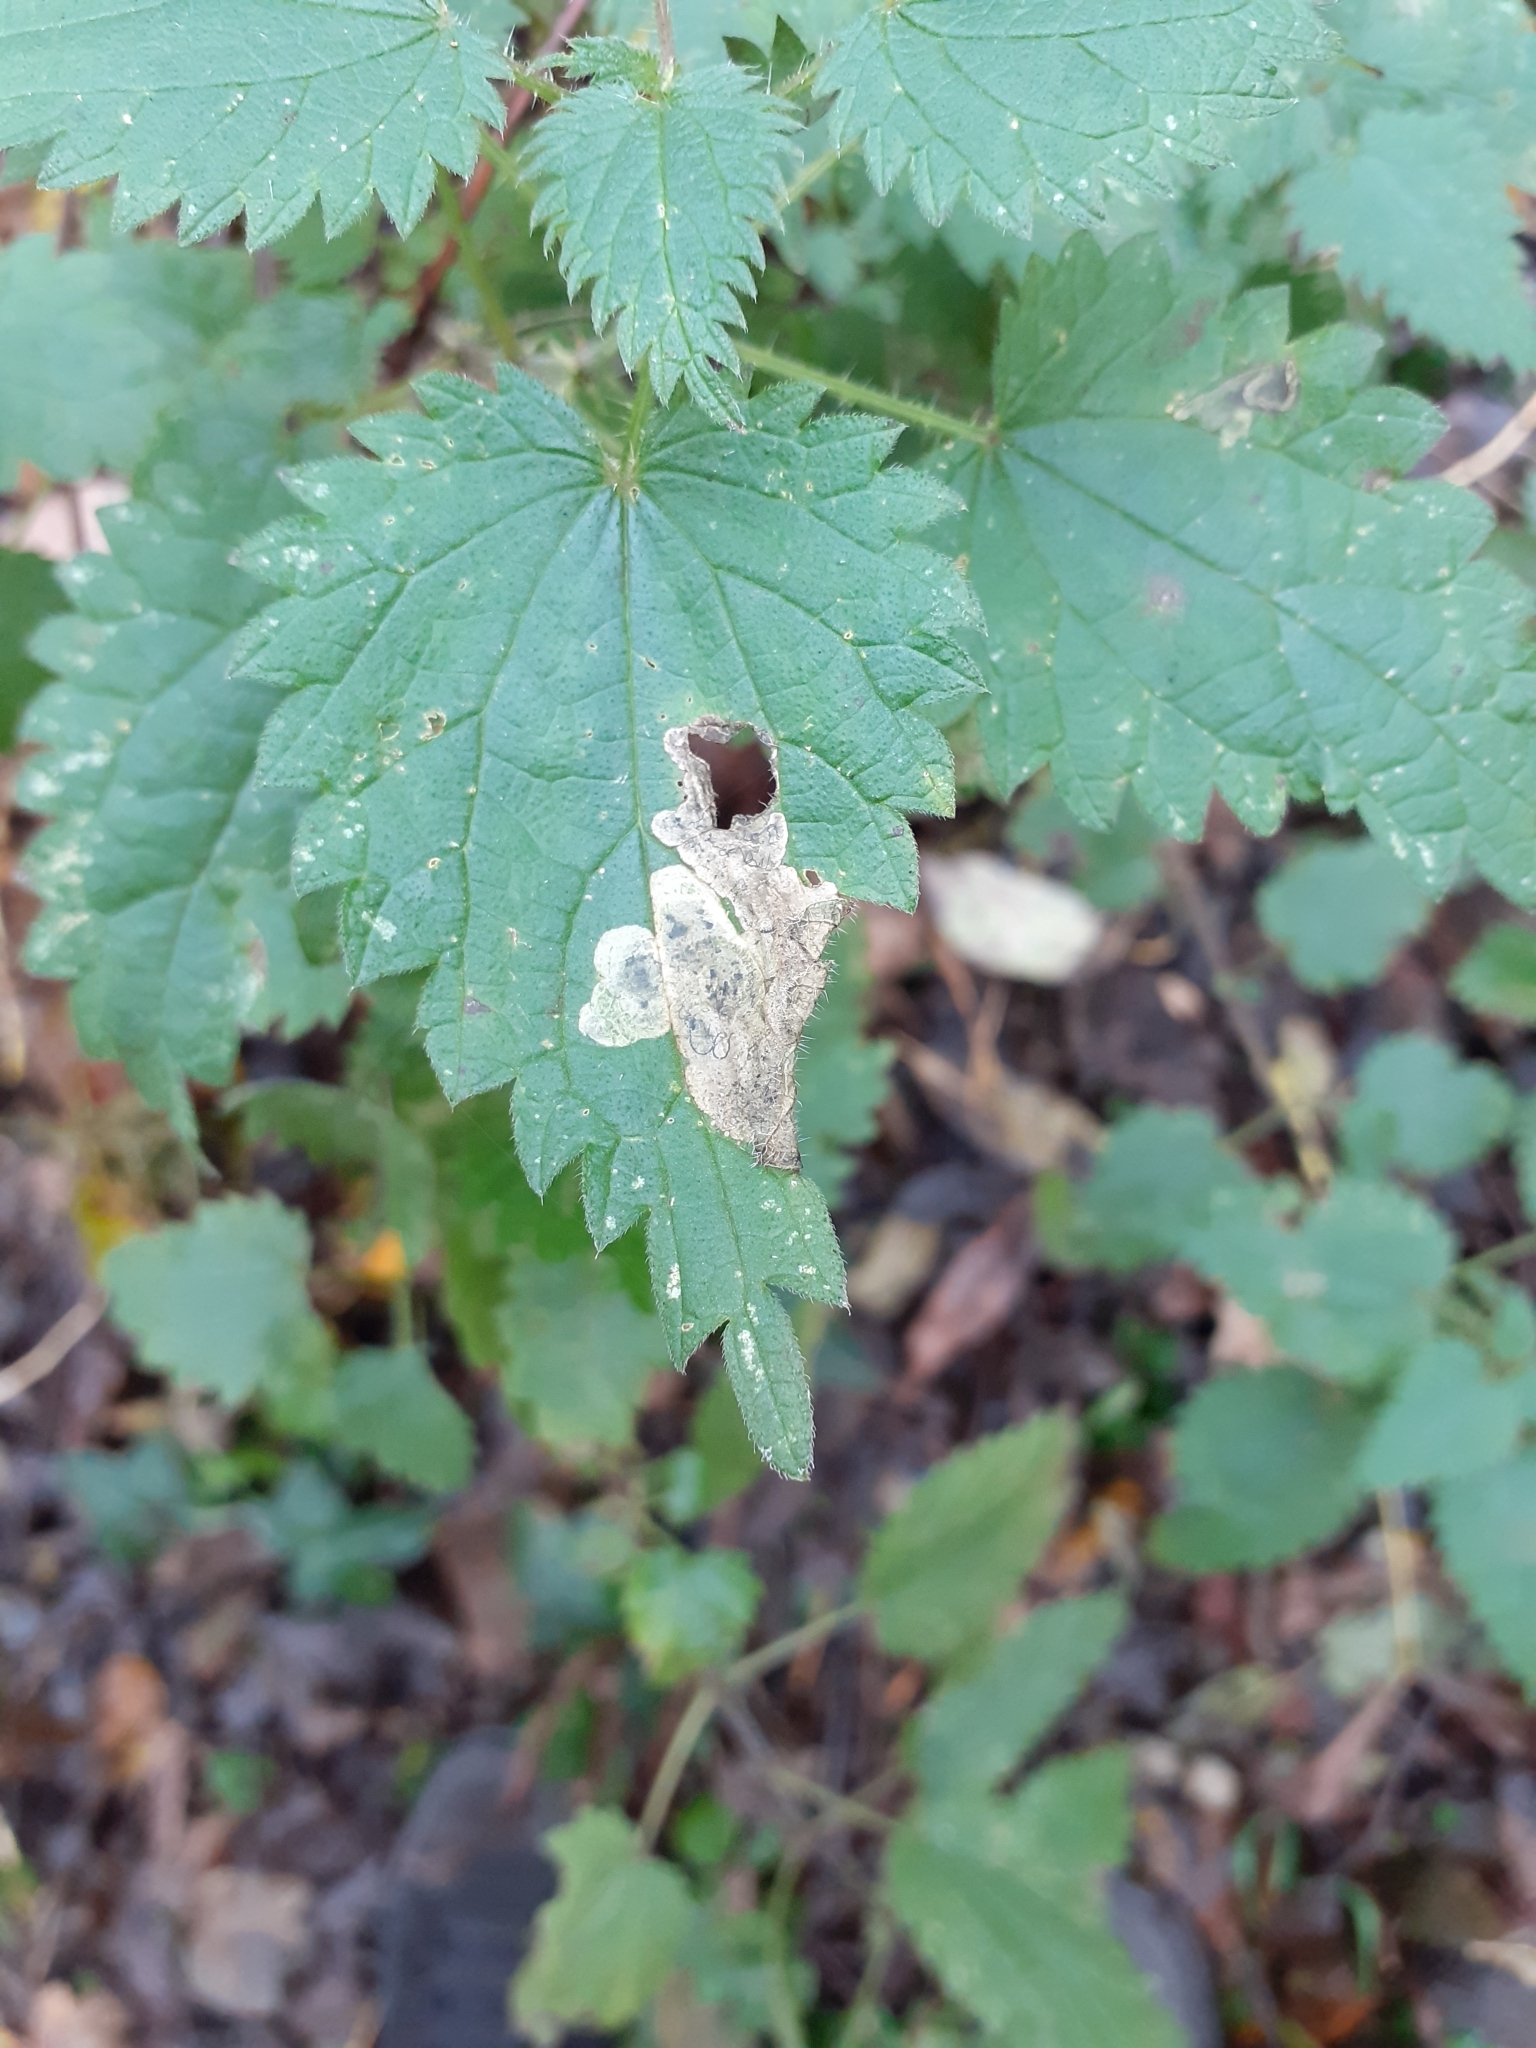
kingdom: Animalia
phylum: Arthropoda
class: Insecta
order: Diptera
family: Agromyzidae
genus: Agromyza
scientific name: Agromyza anthracina
